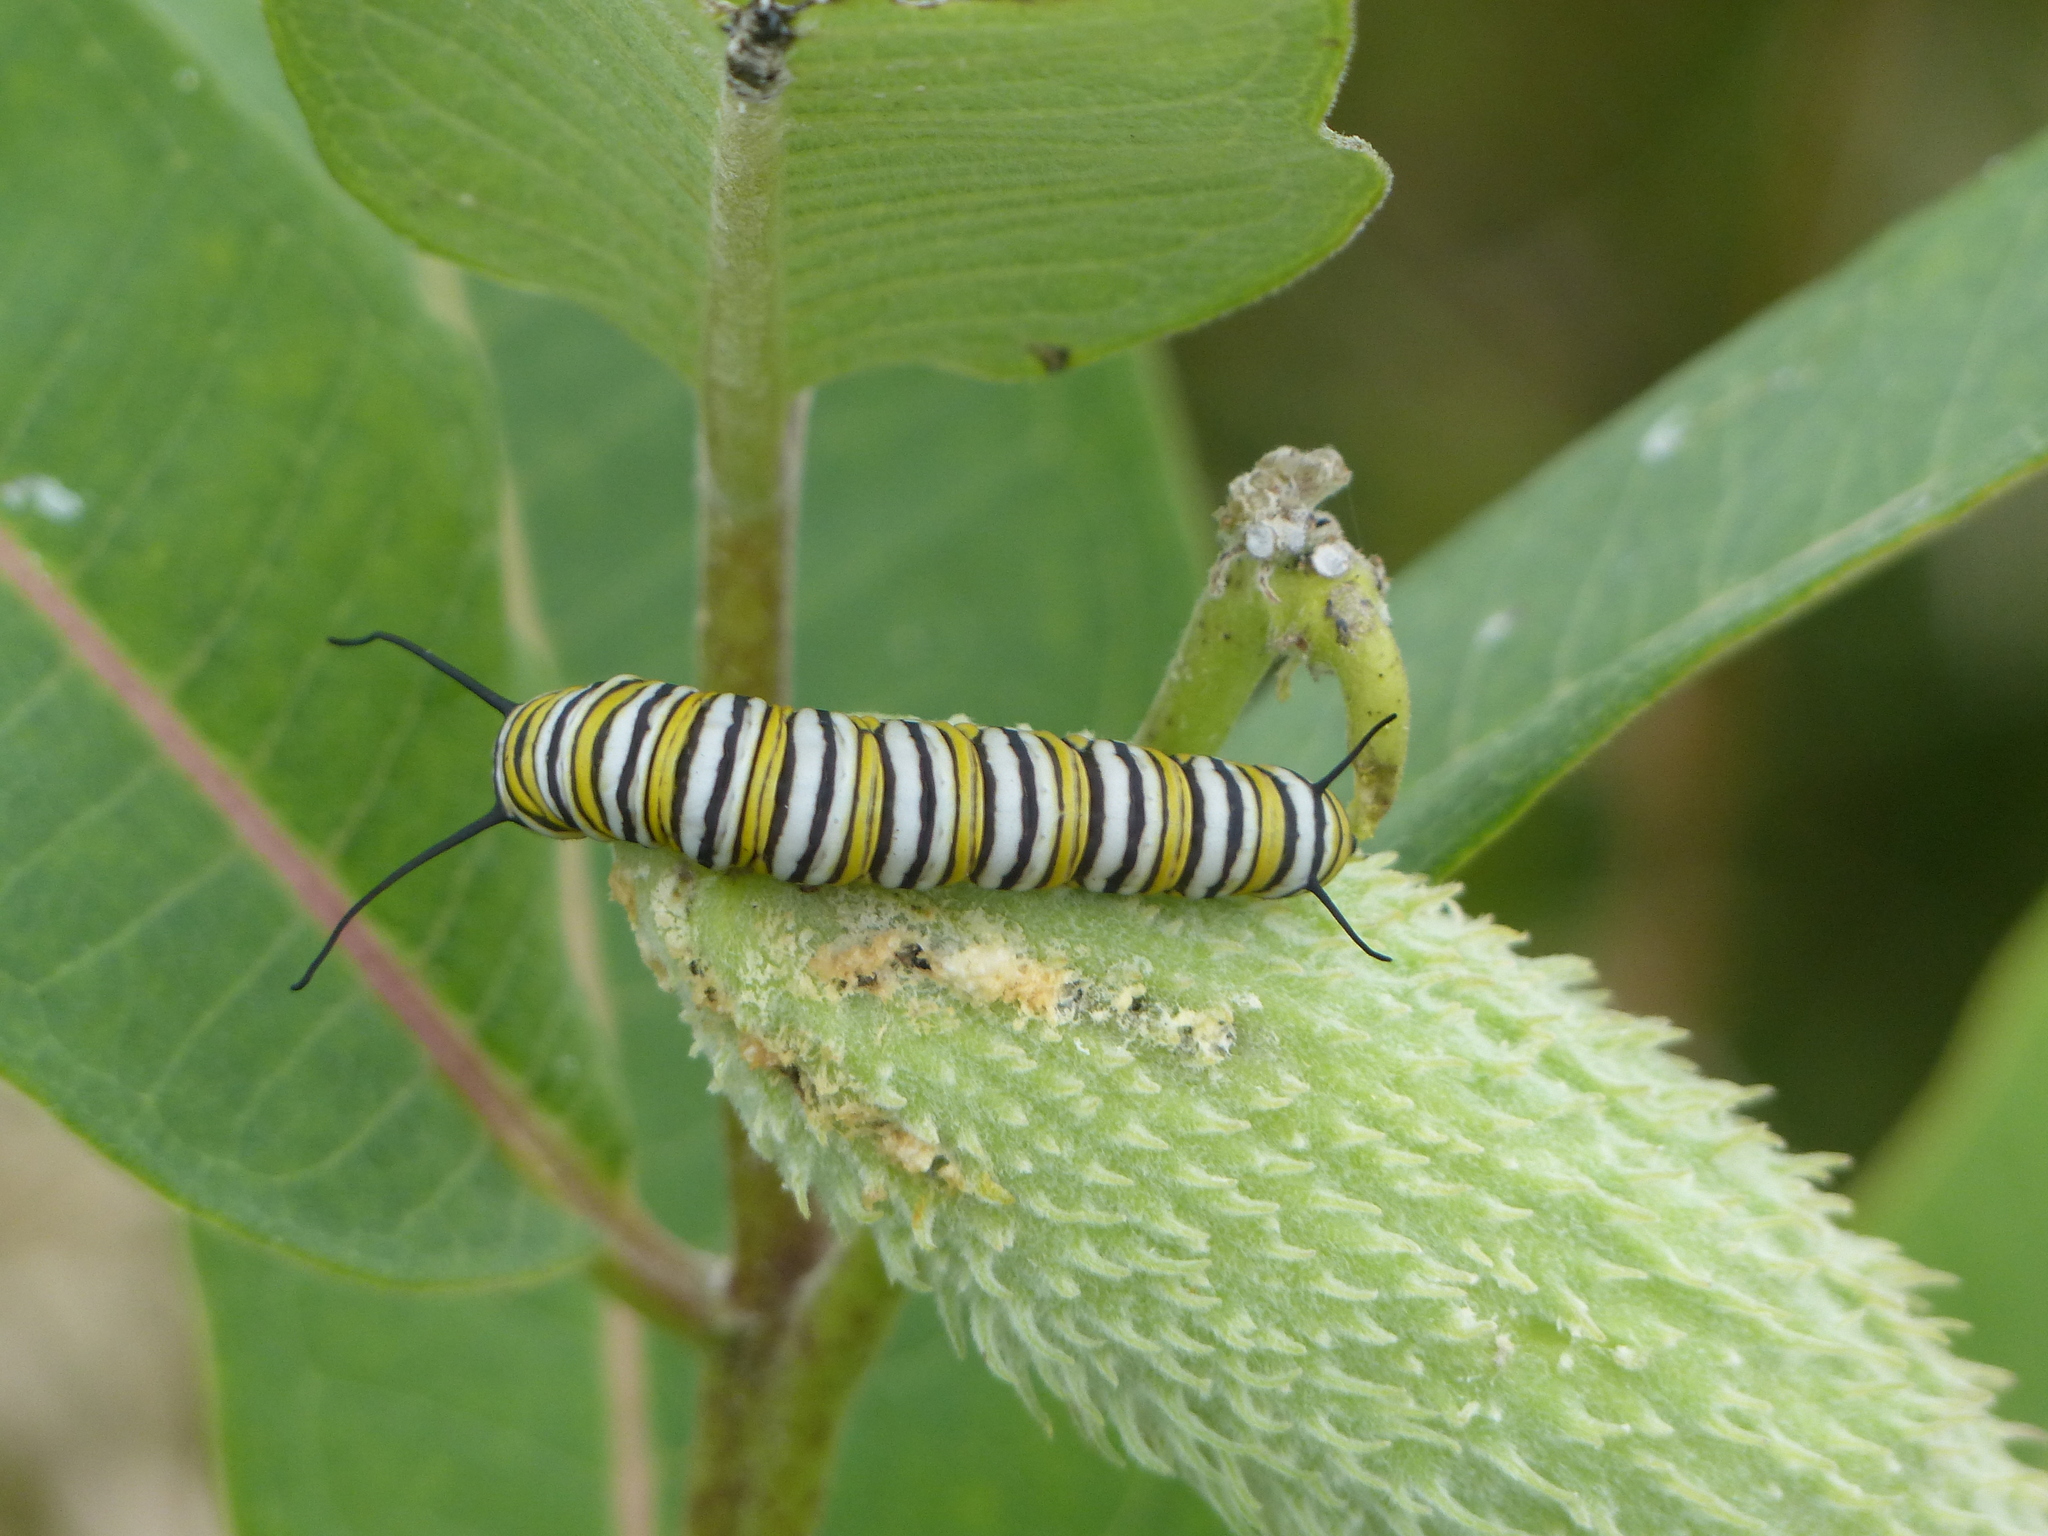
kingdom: Animalia
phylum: Arthropoda
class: Insecta
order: Lepidoptera
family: Nymphalidae
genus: Danaus
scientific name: Danaus plexippus
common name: Monarch
